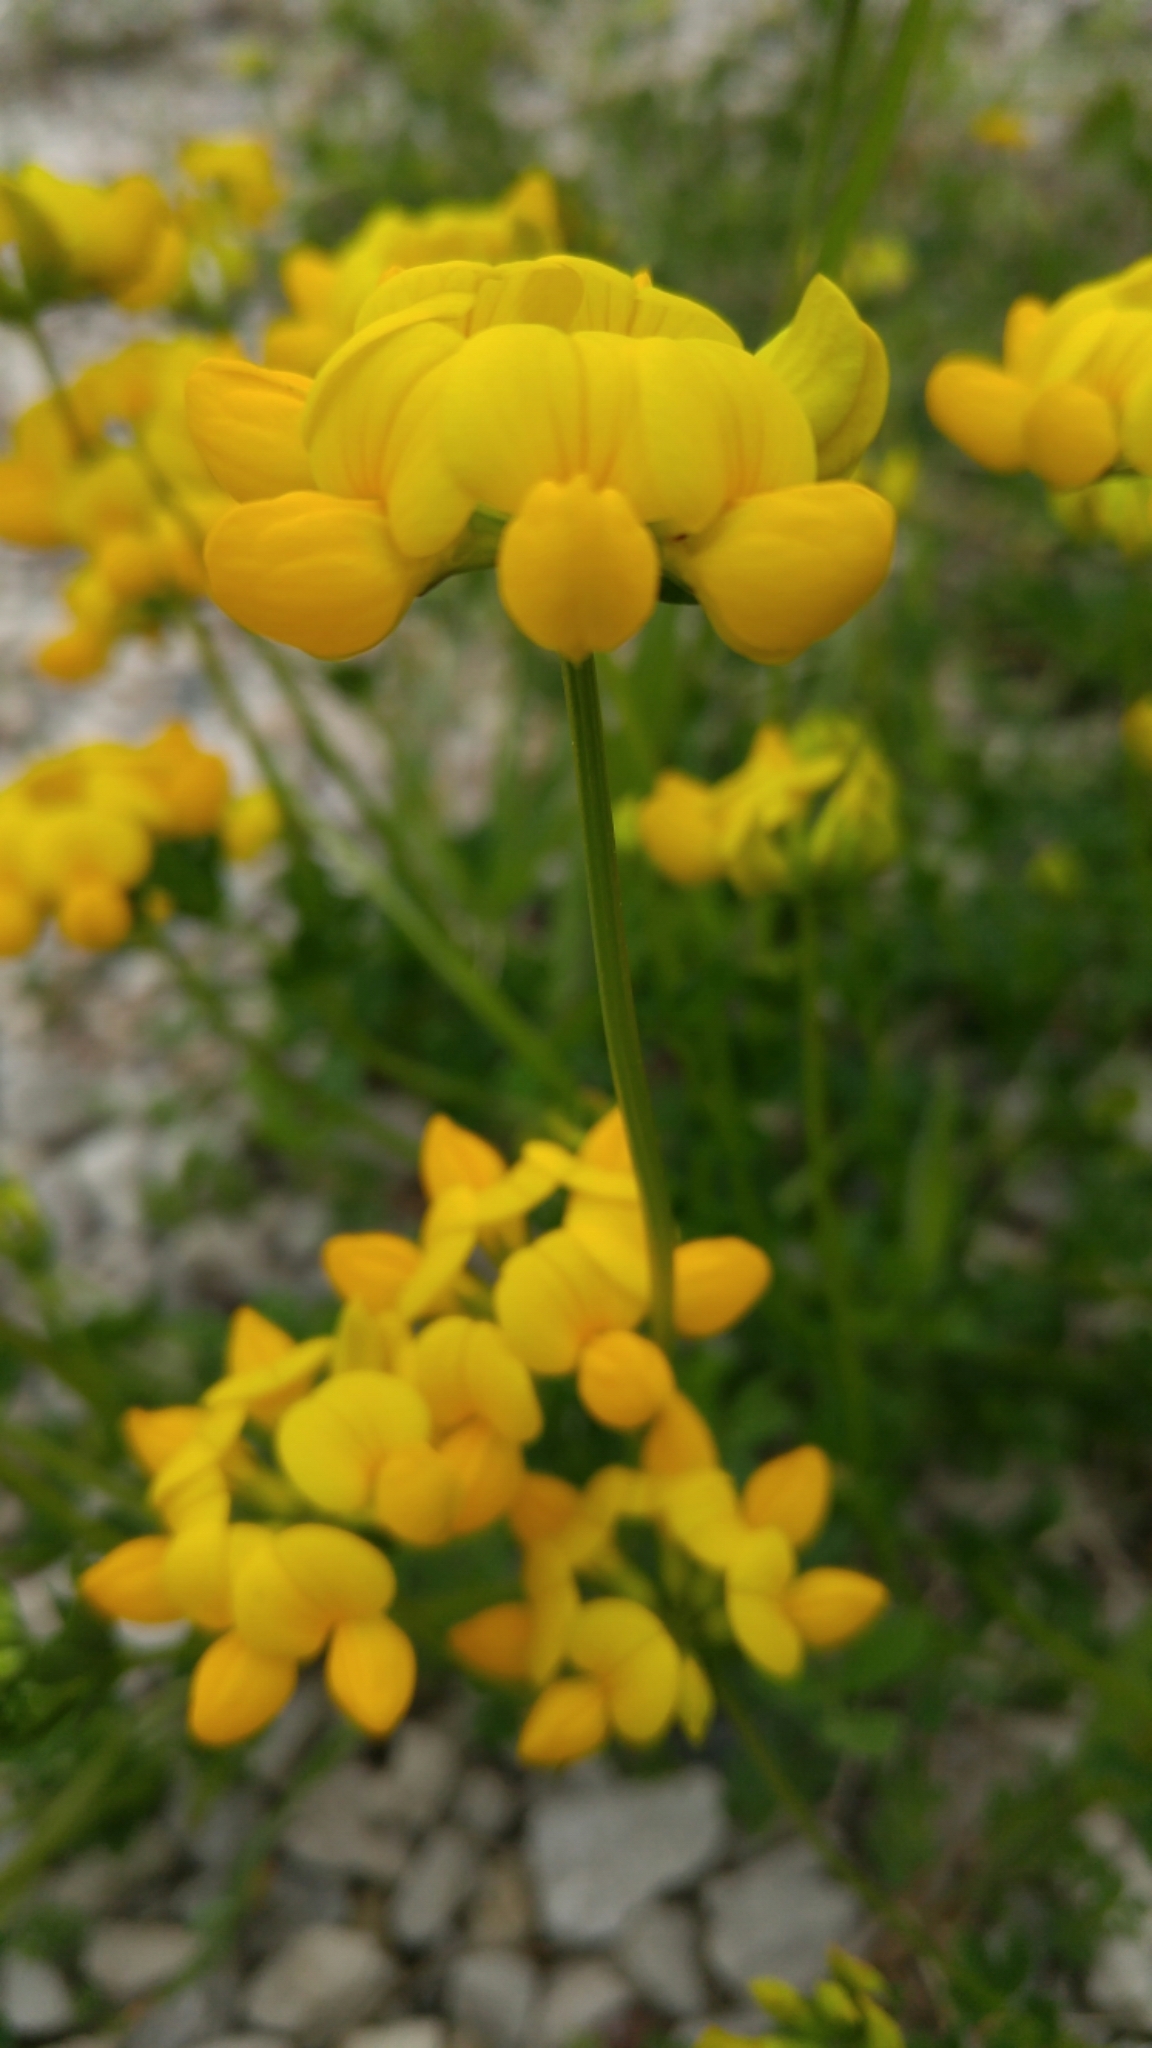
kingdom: Plantae
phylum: Tracheophyta
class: Magnoliopsida
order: Fabales
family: Fabaceae
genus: Lotus
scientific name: Lotus corniculatus
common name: Common bird's-foot-trefoil
